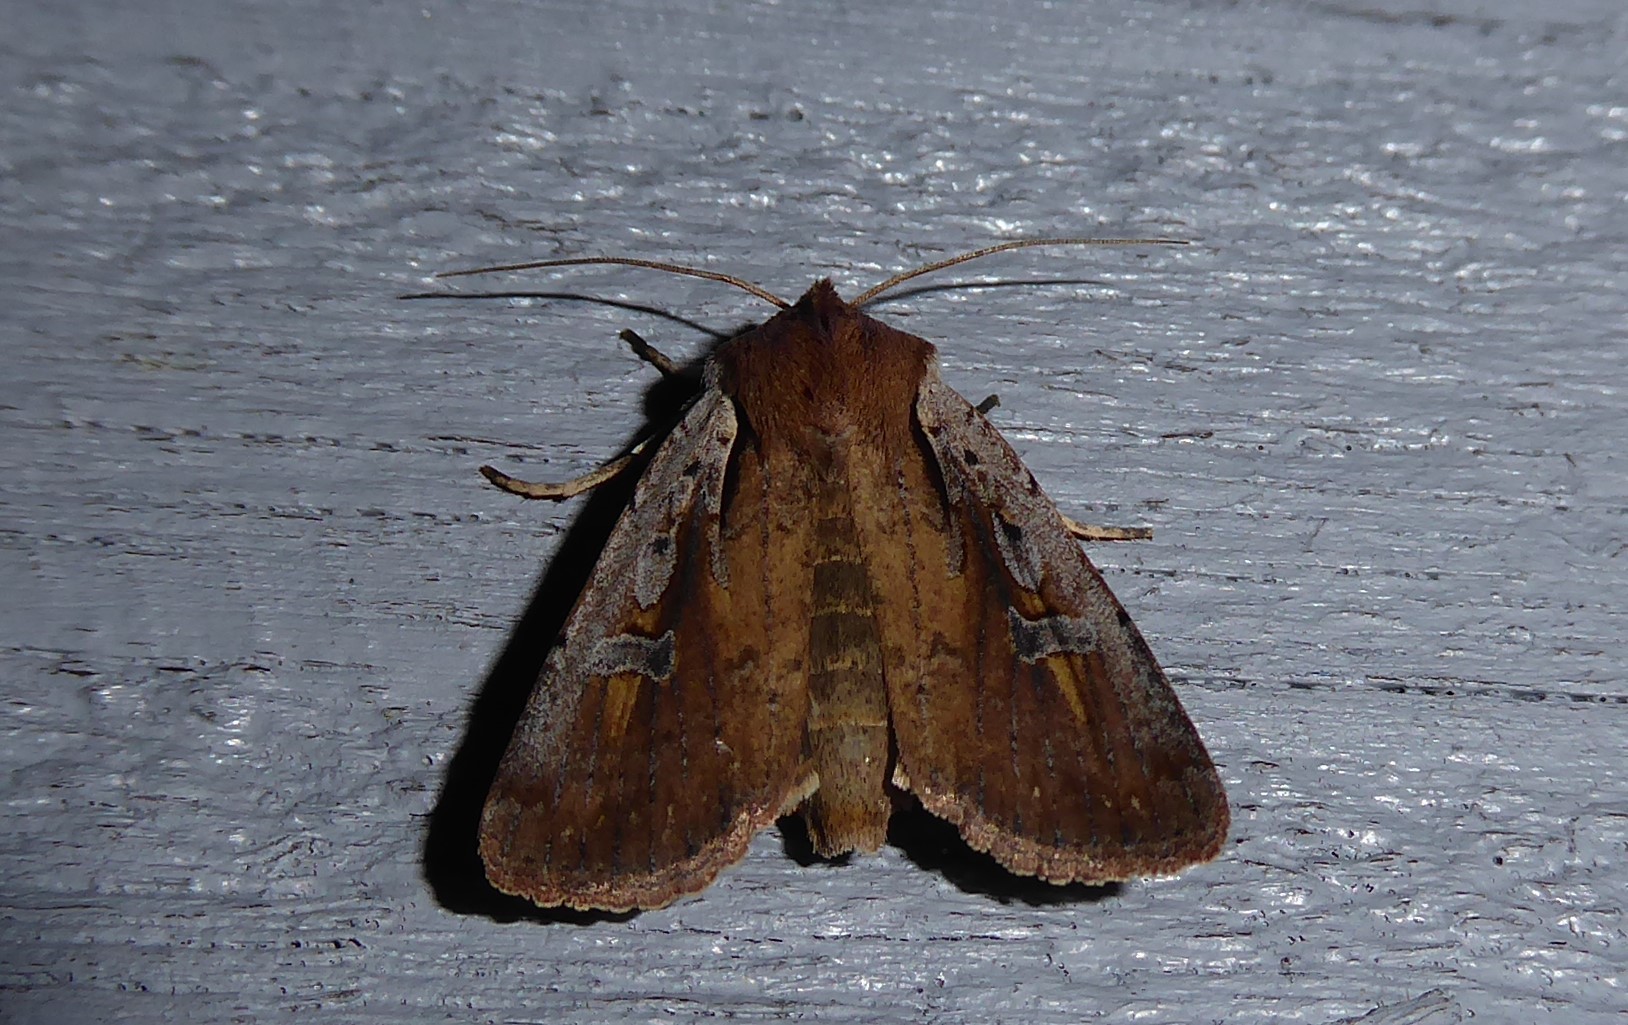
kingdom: Animalia
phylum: Arthropoda
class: Insecta
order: Lepidoptera
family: Noctuidae
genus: Ichneutica
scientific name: Ichneutica atristriga
